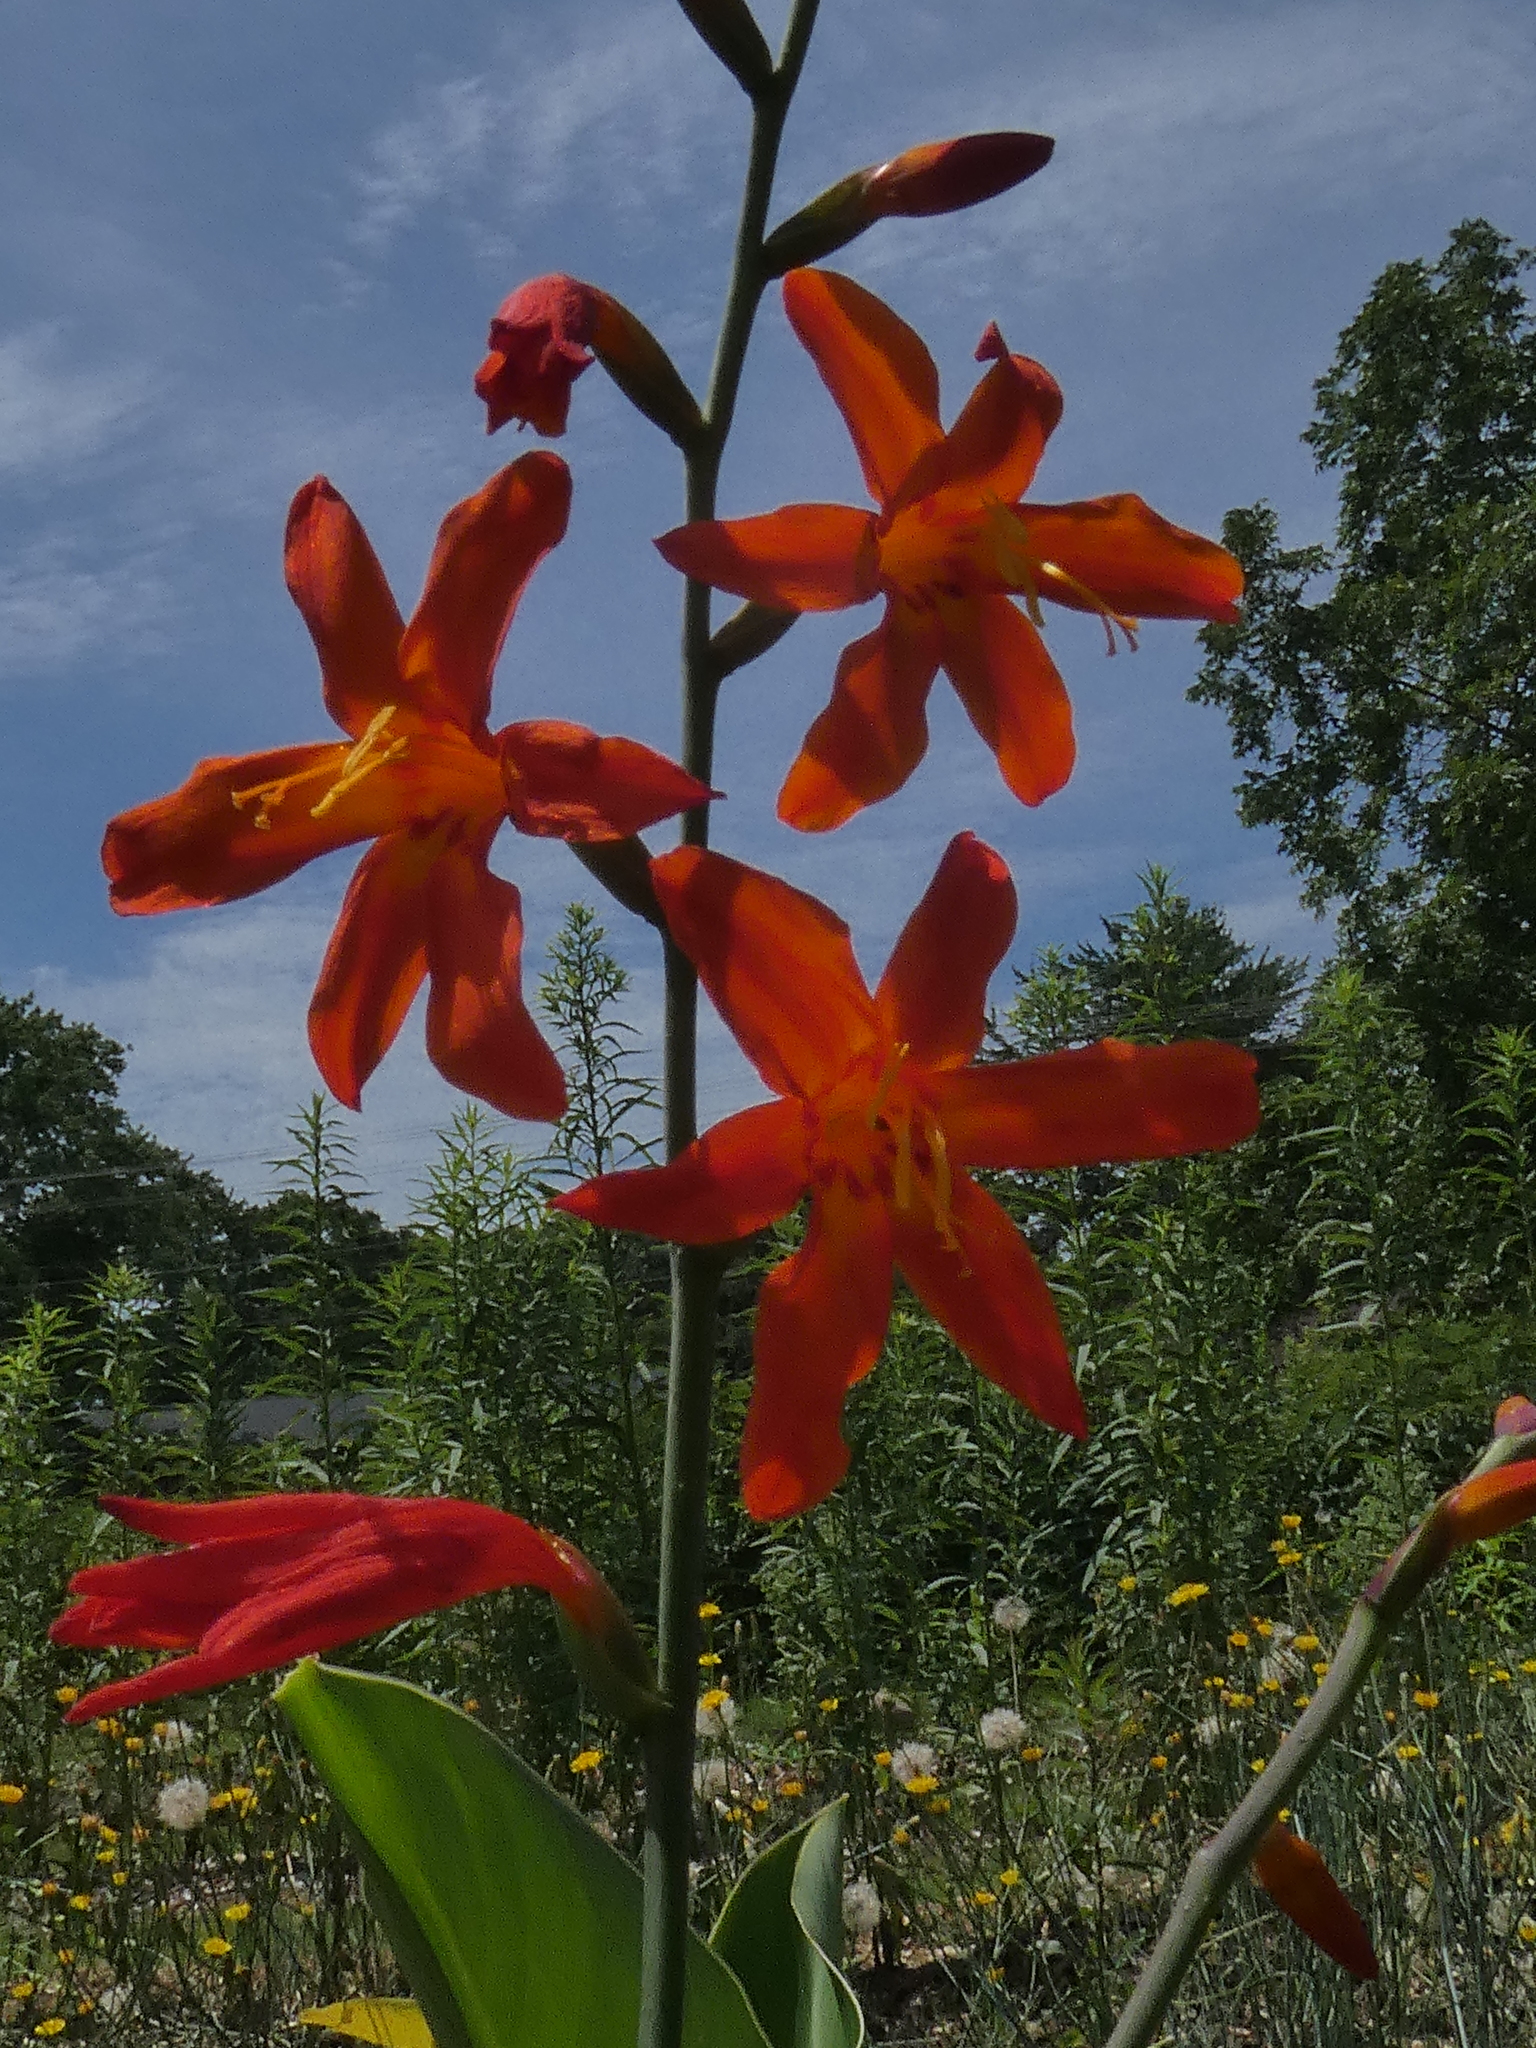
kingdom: Plantae
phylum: Tracheophyta
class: Liliopsida
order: Asparagales
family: Iridaceae
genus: Crocosmia
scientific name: Crocosmia crocosmiiflora
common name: Montbretia
